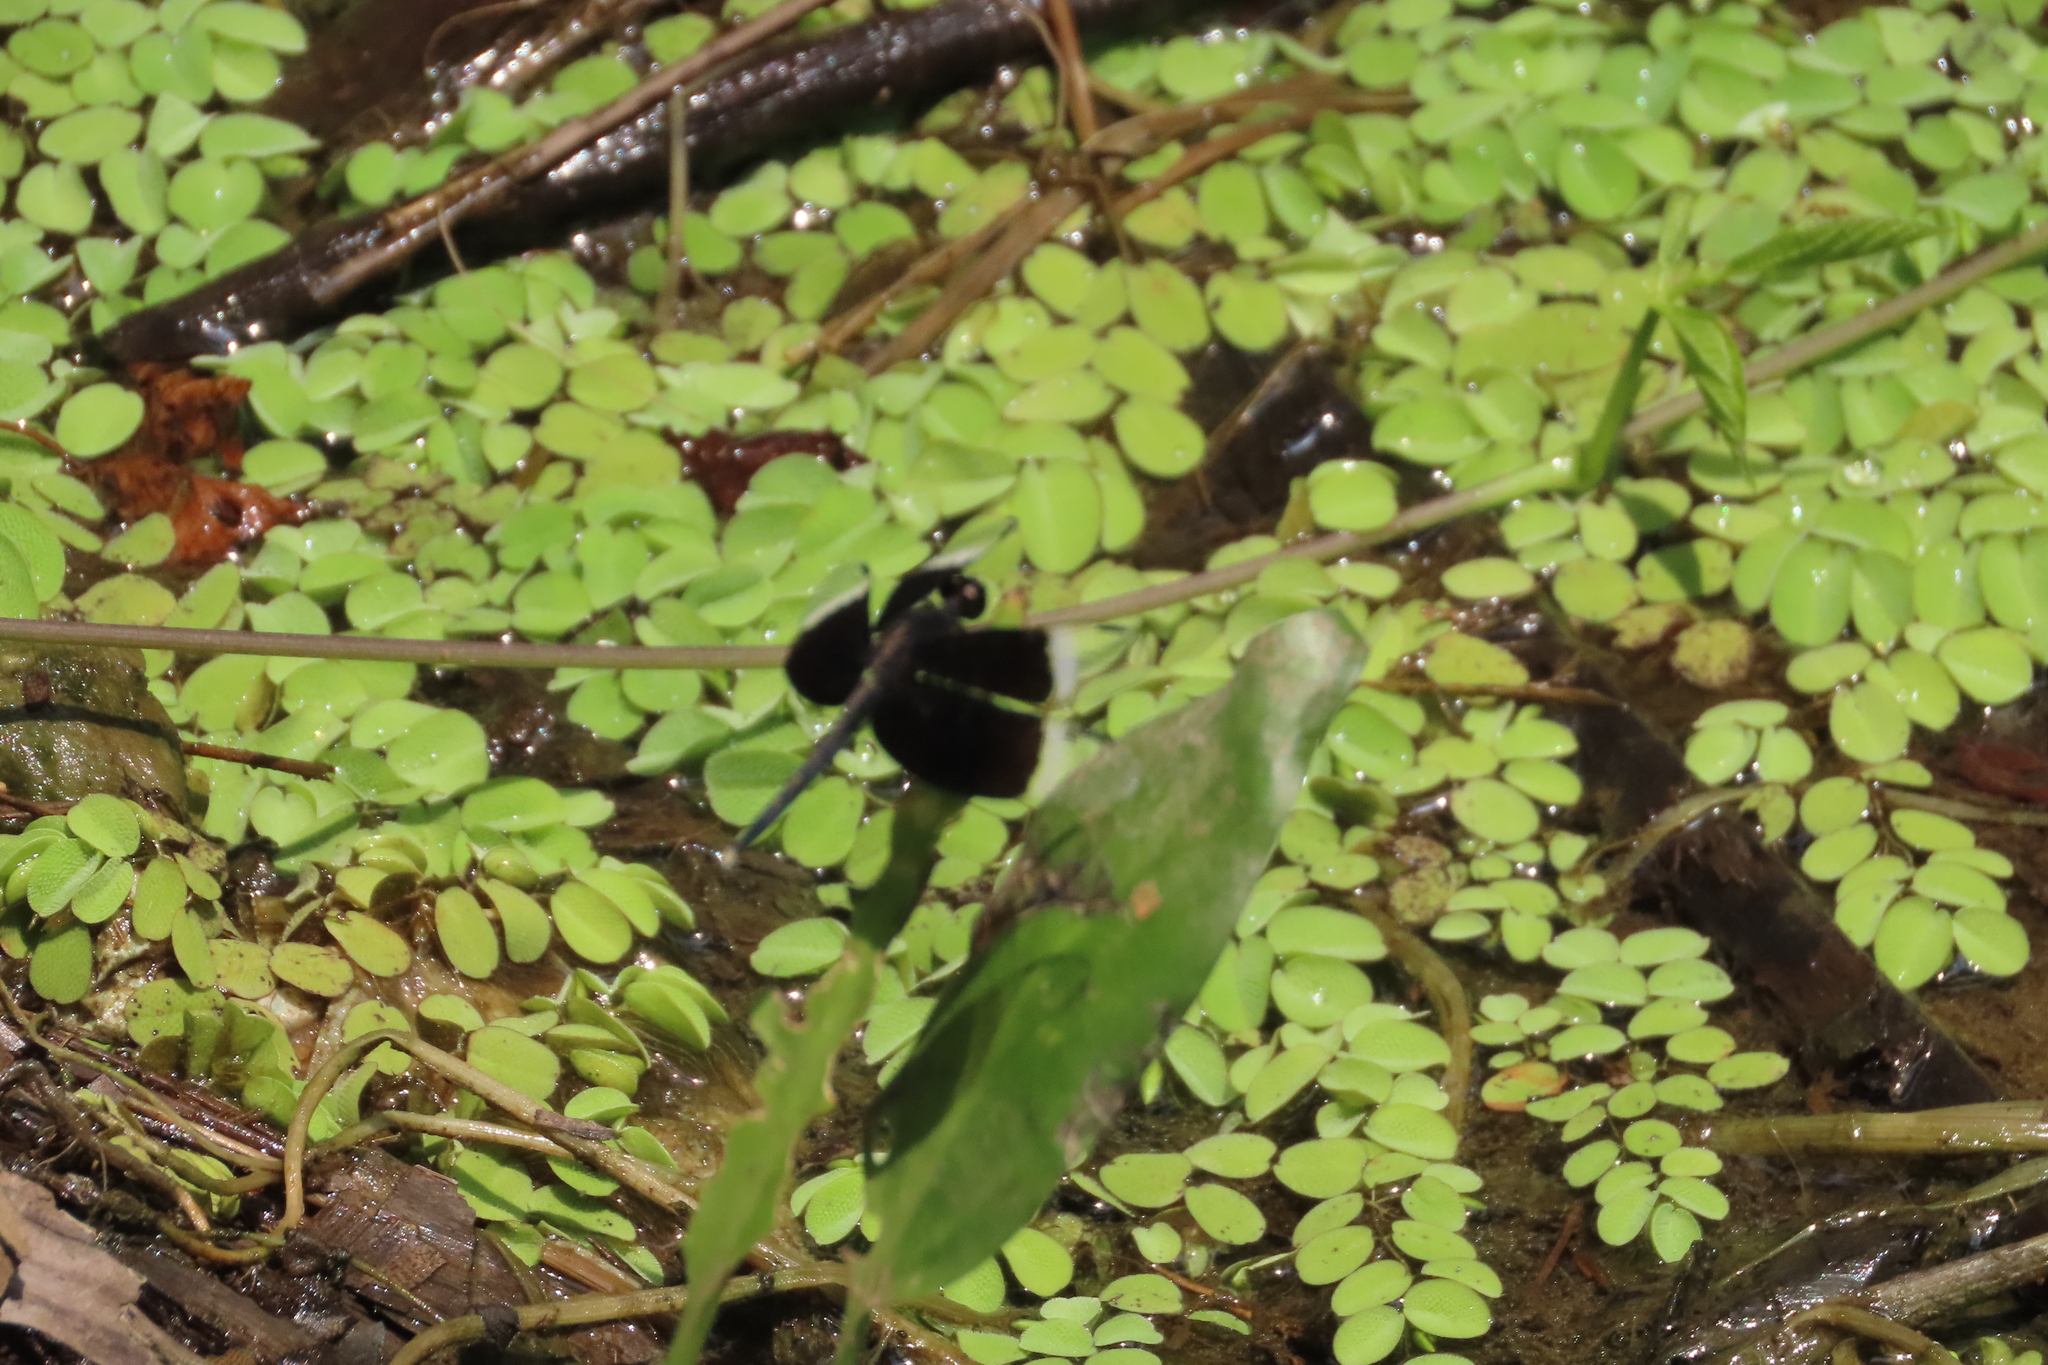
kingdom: Animalia
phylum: Arthropoda
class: Insecta
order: Odonata
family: Libellulidae
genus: Neurothemis
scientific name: Neurothemis tullia
